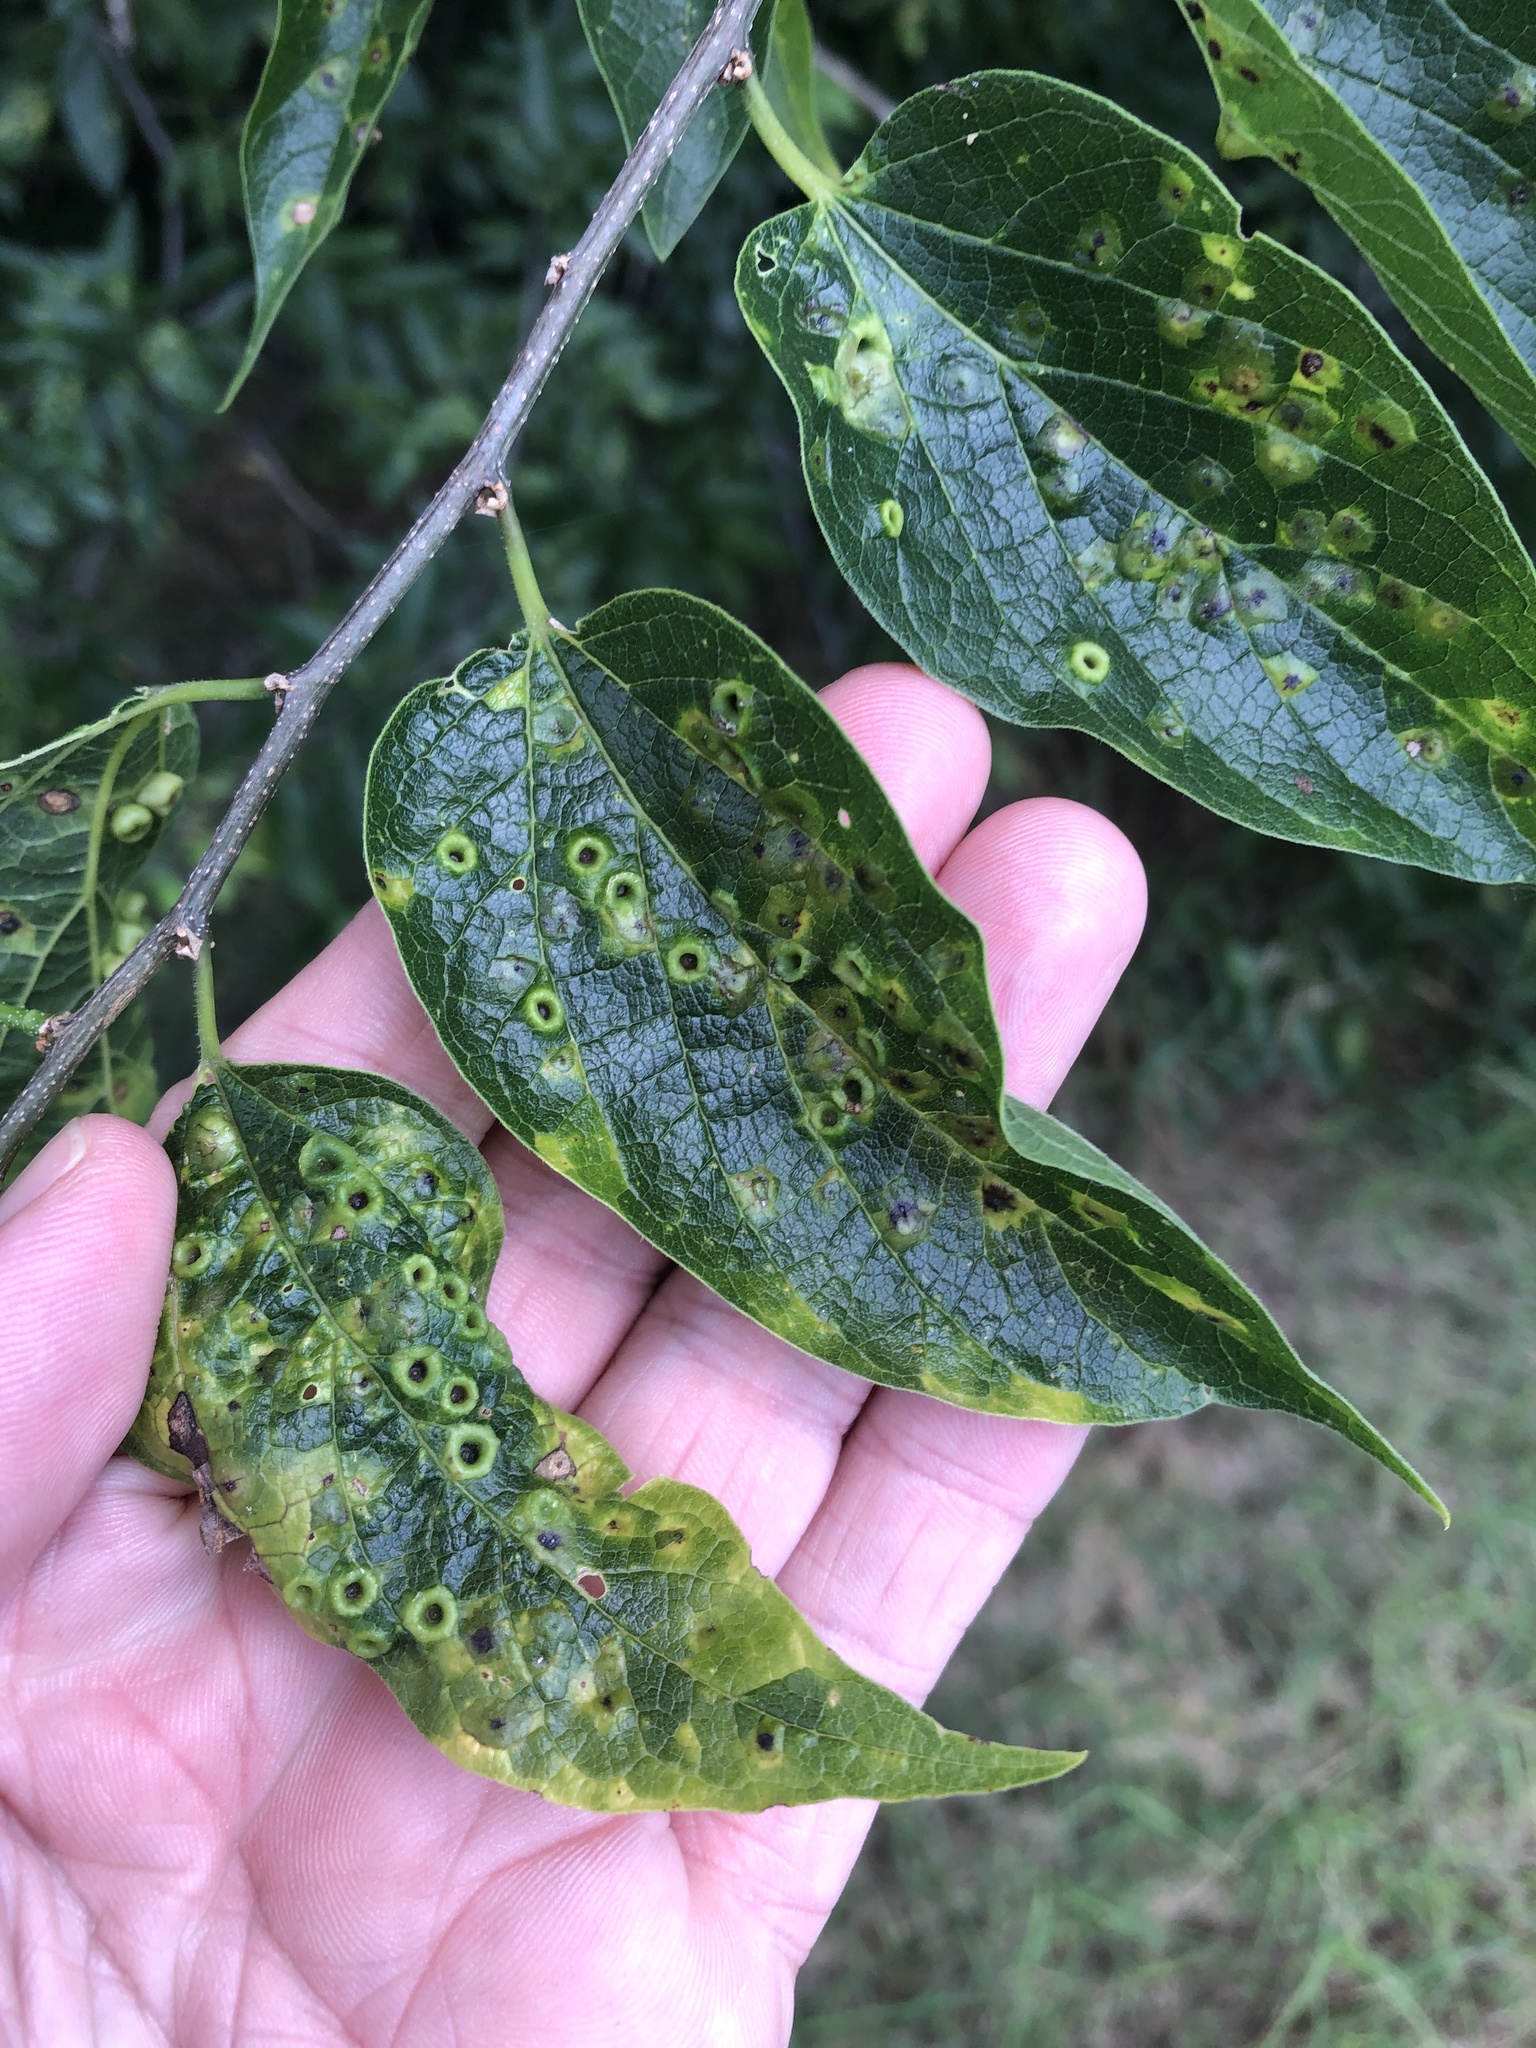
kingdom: Animalia
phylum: Arthropoda
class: Insecta
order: Hemiptera
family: Aphalaridae
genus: Pachypsylla
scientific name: Pachypsylla celtidismamma
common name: Hackberry nipplegall psyllid
